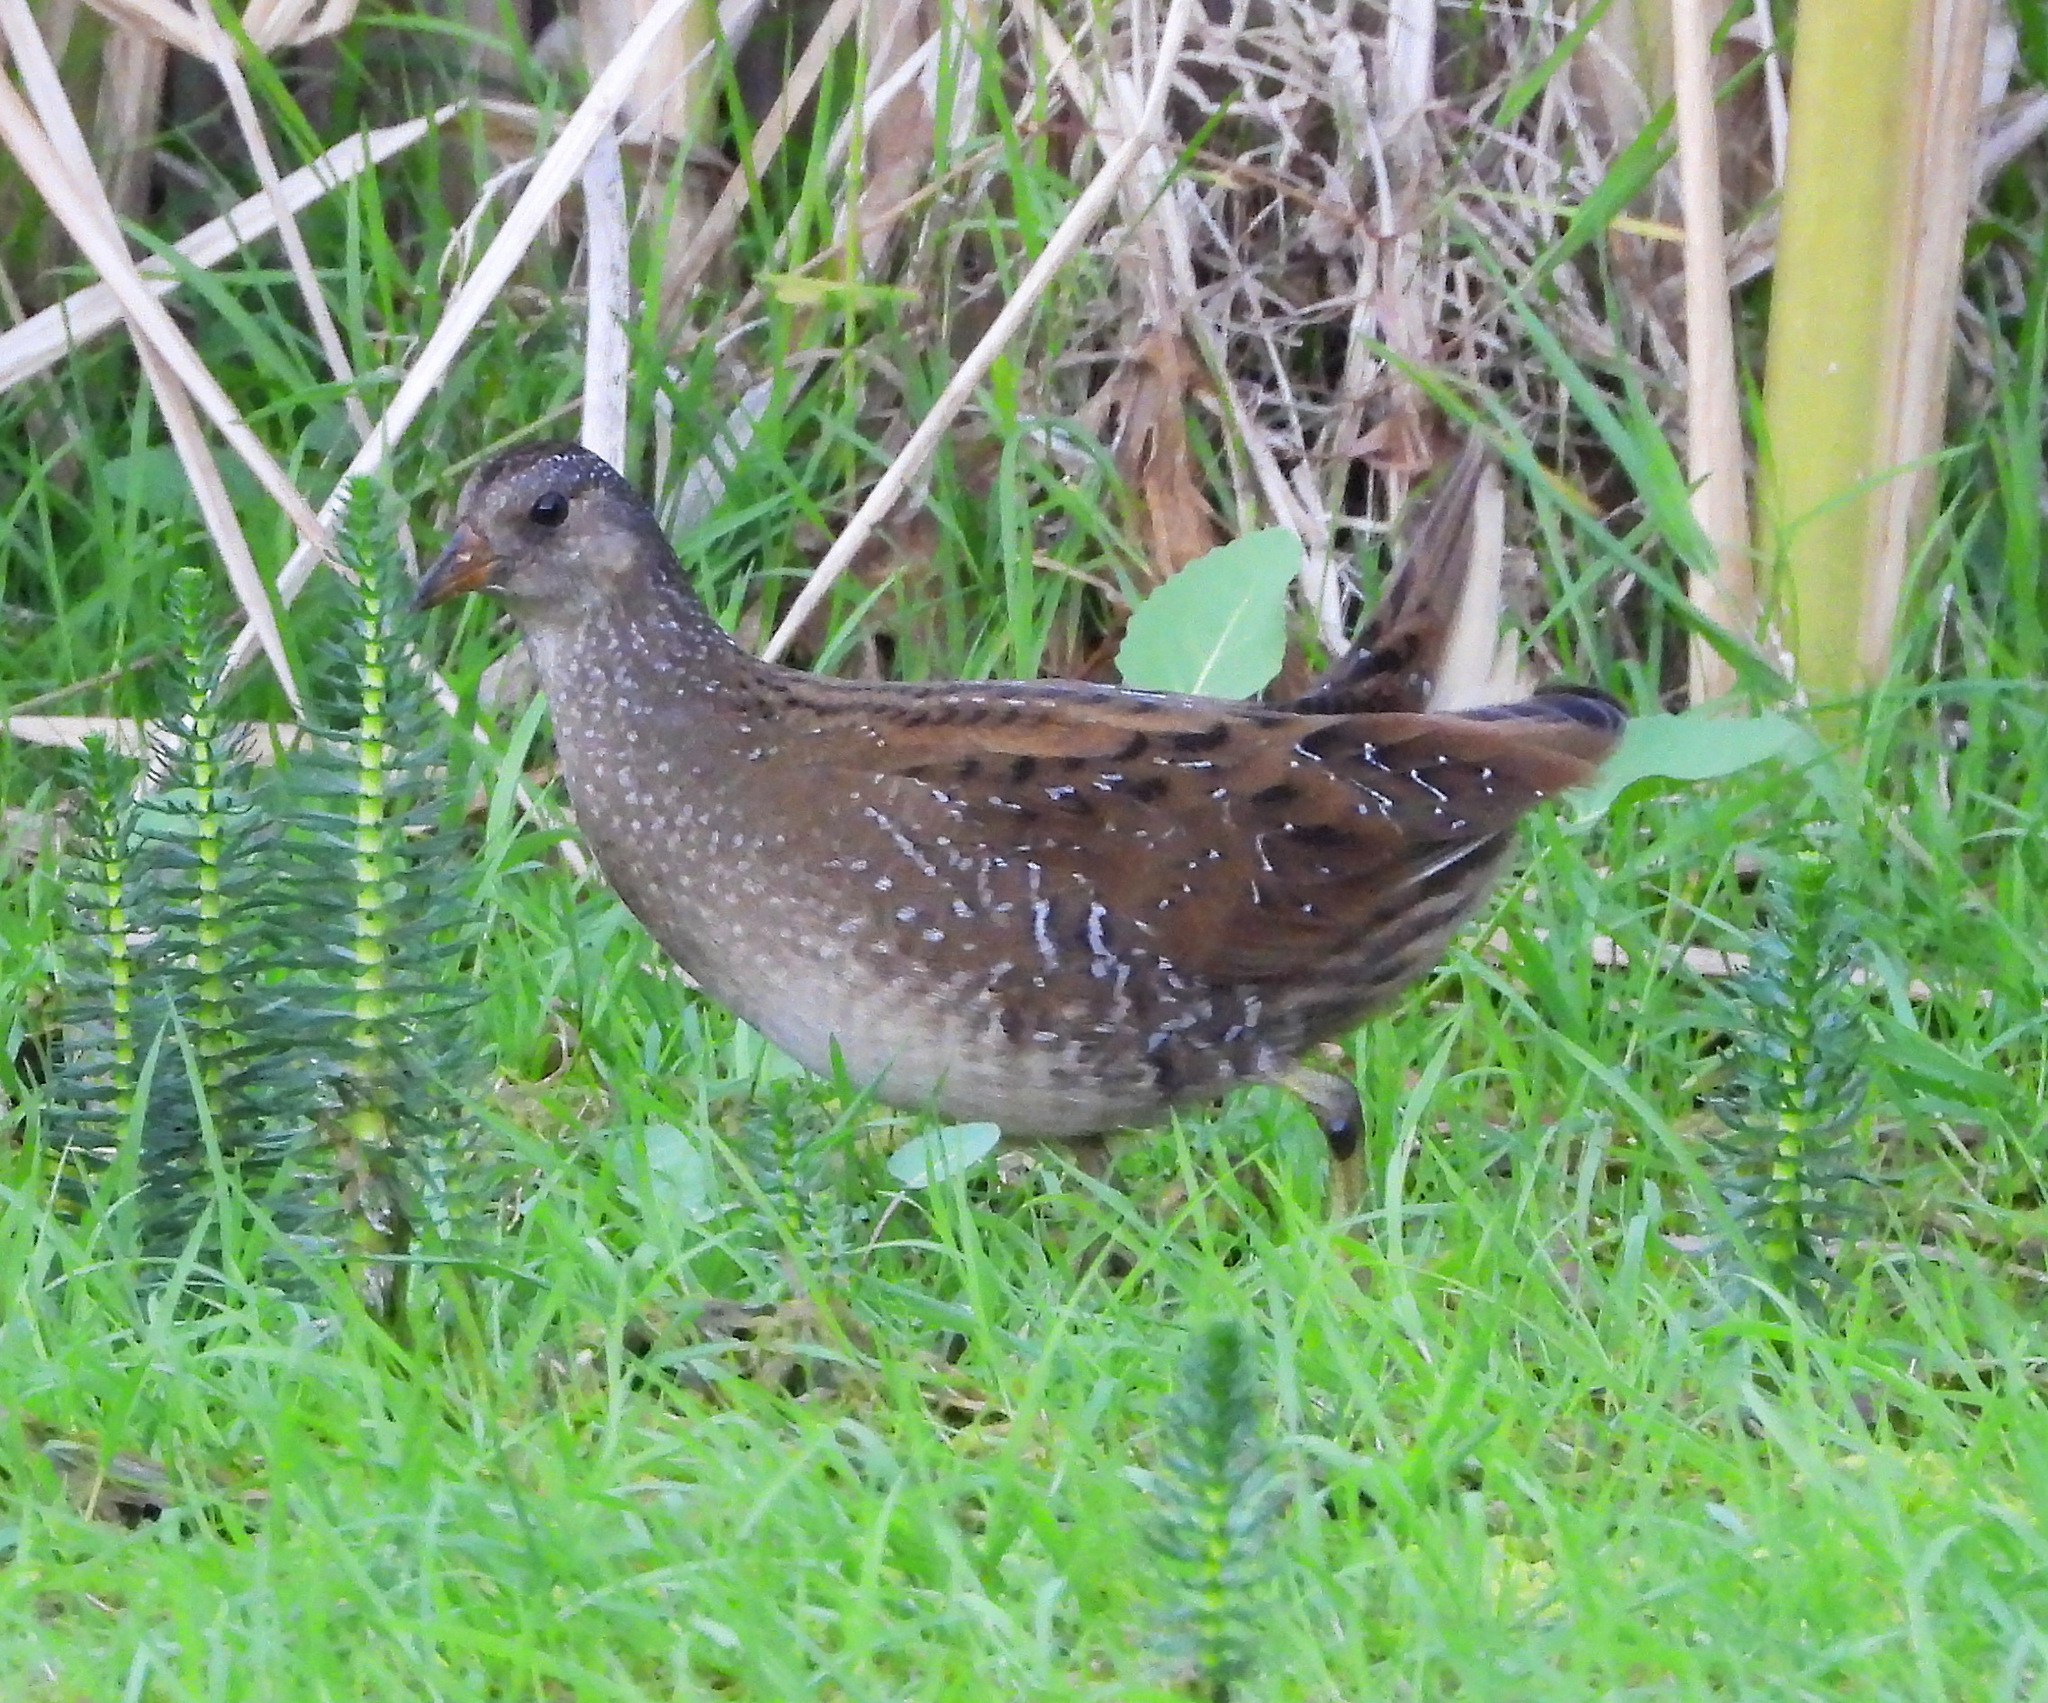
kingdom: Animalia
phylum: Chordata
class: Aves
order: Gruiformes
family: Rallidae
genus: Porzana
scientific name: Porzana porzana
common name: Spotted crake
